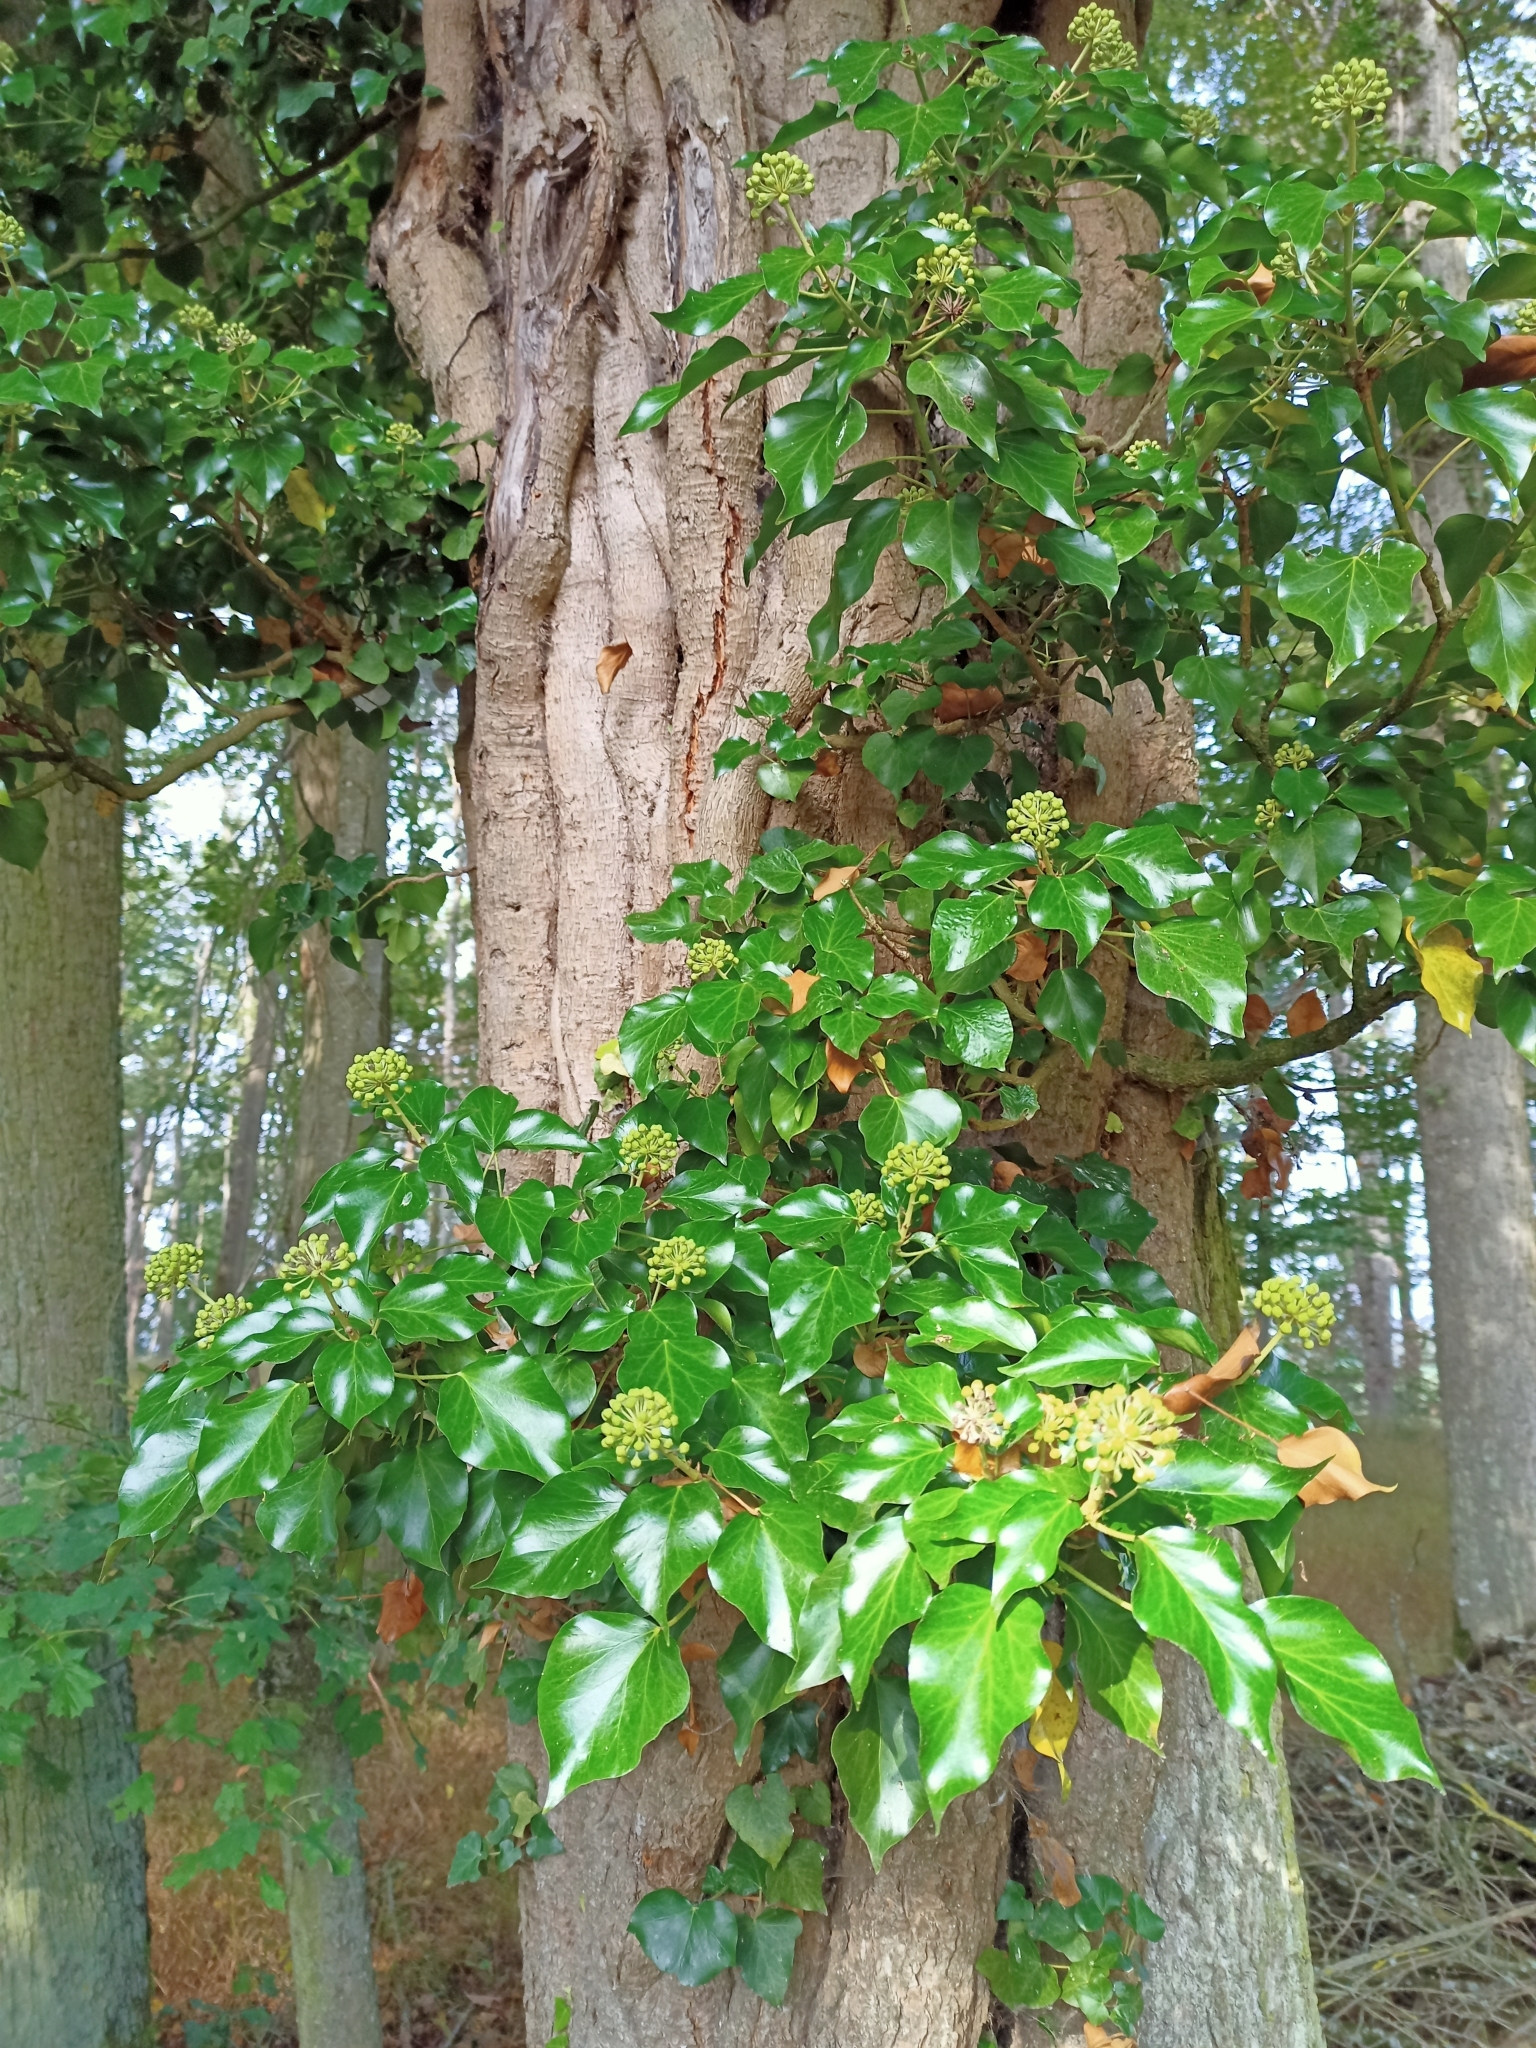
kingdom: Plantae
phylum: Tracheophyta
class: Magnoliopsida
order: Apiales
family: Araliaceae
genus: Hedera
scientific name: Hedera helix
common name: Ivy
